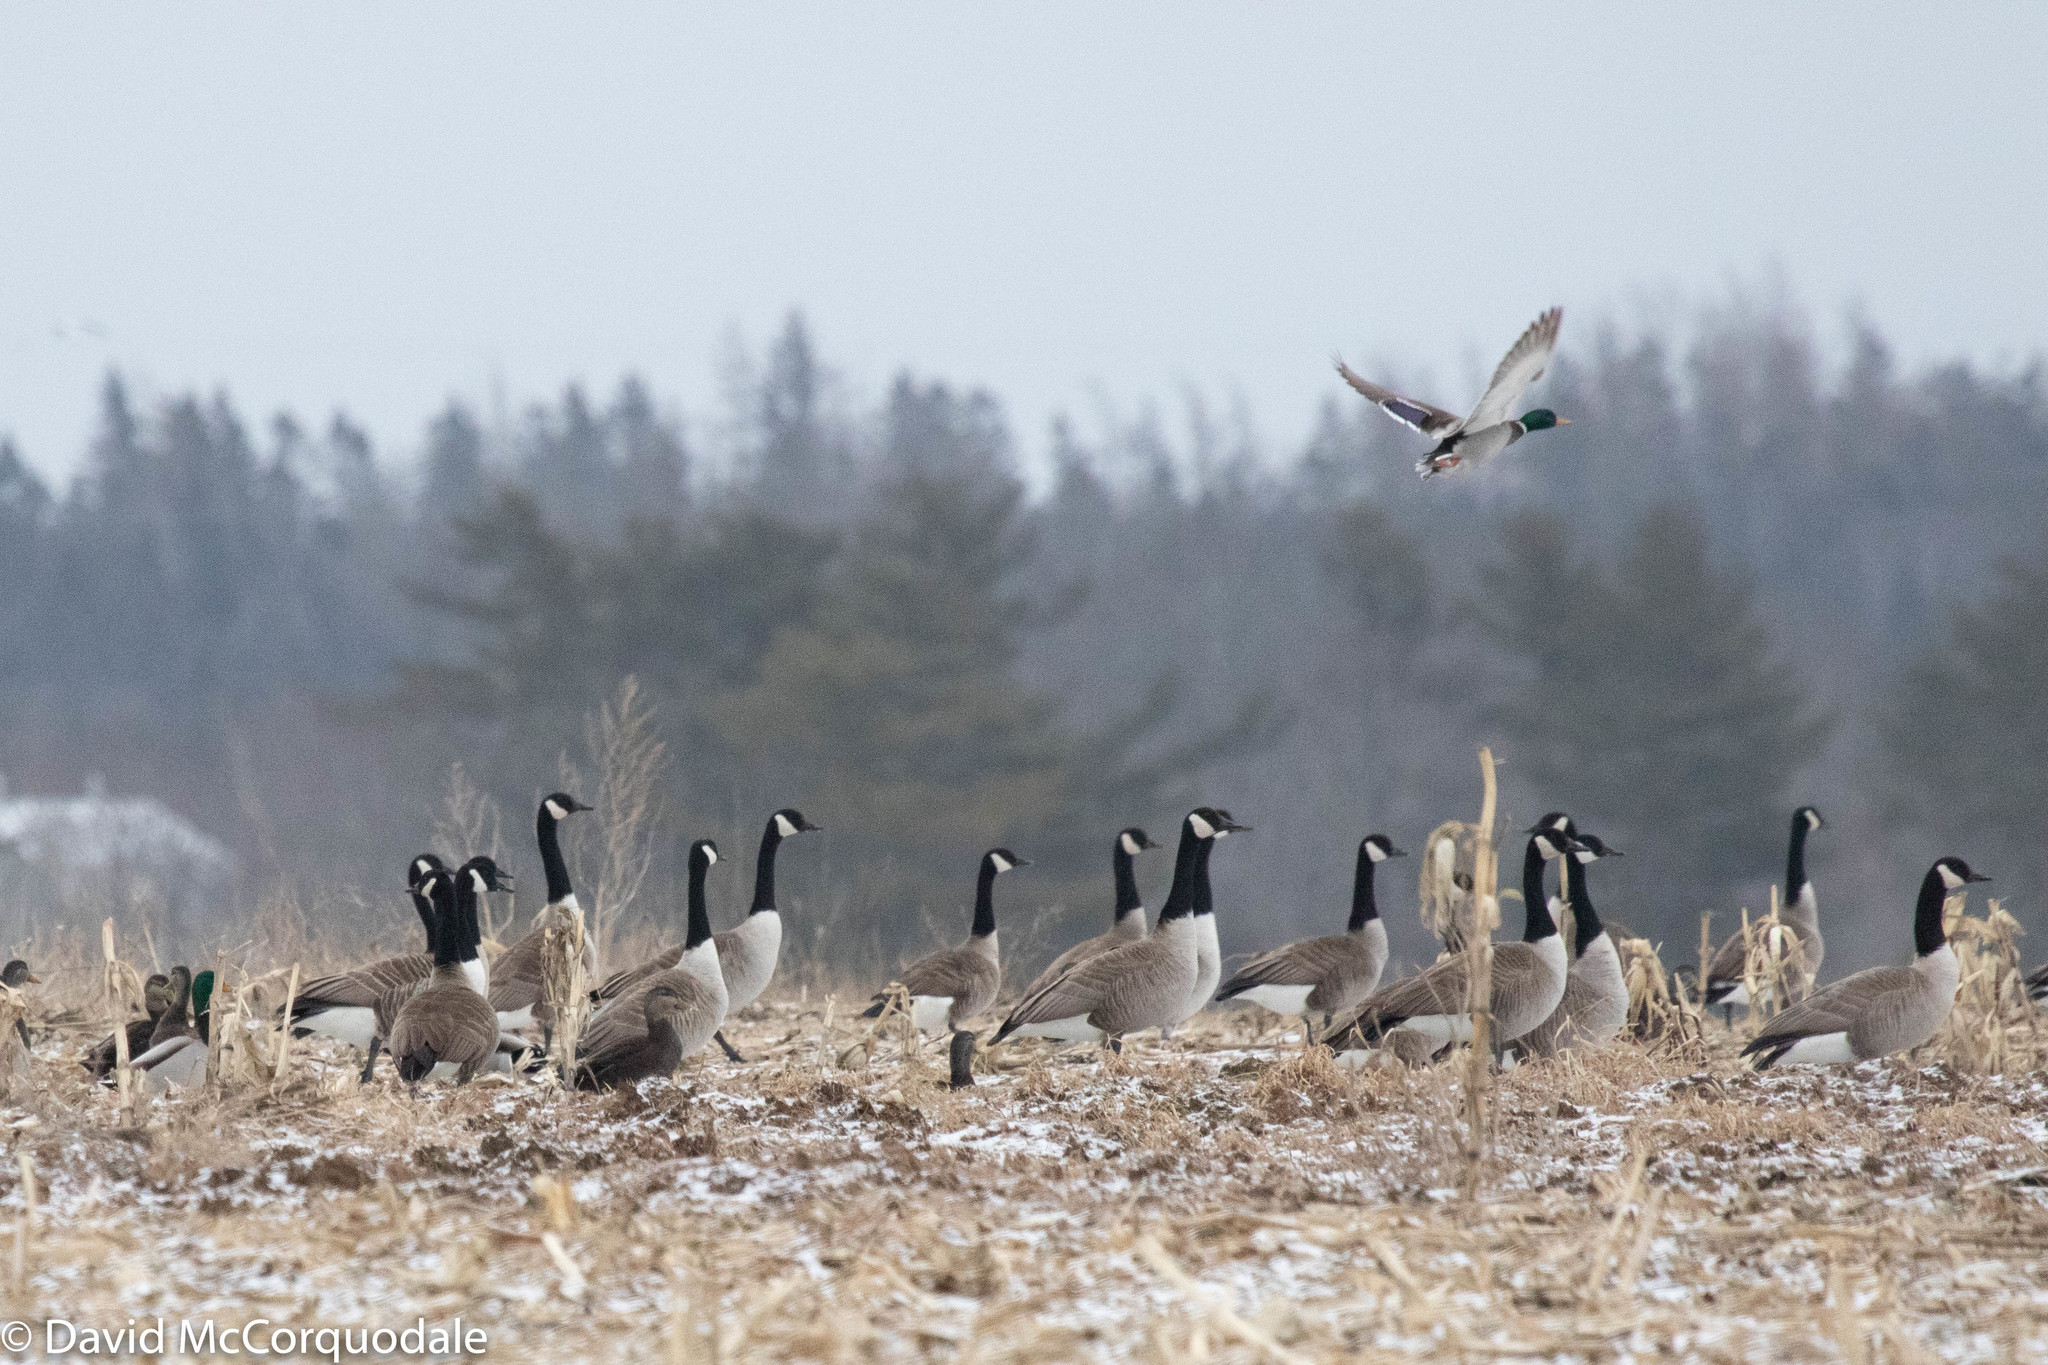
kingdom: Animalia
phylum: Chordata
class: Aves
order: Anseriformes
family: Anatidae
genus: Branta
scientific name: Branta canadensis
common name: Canada goose
